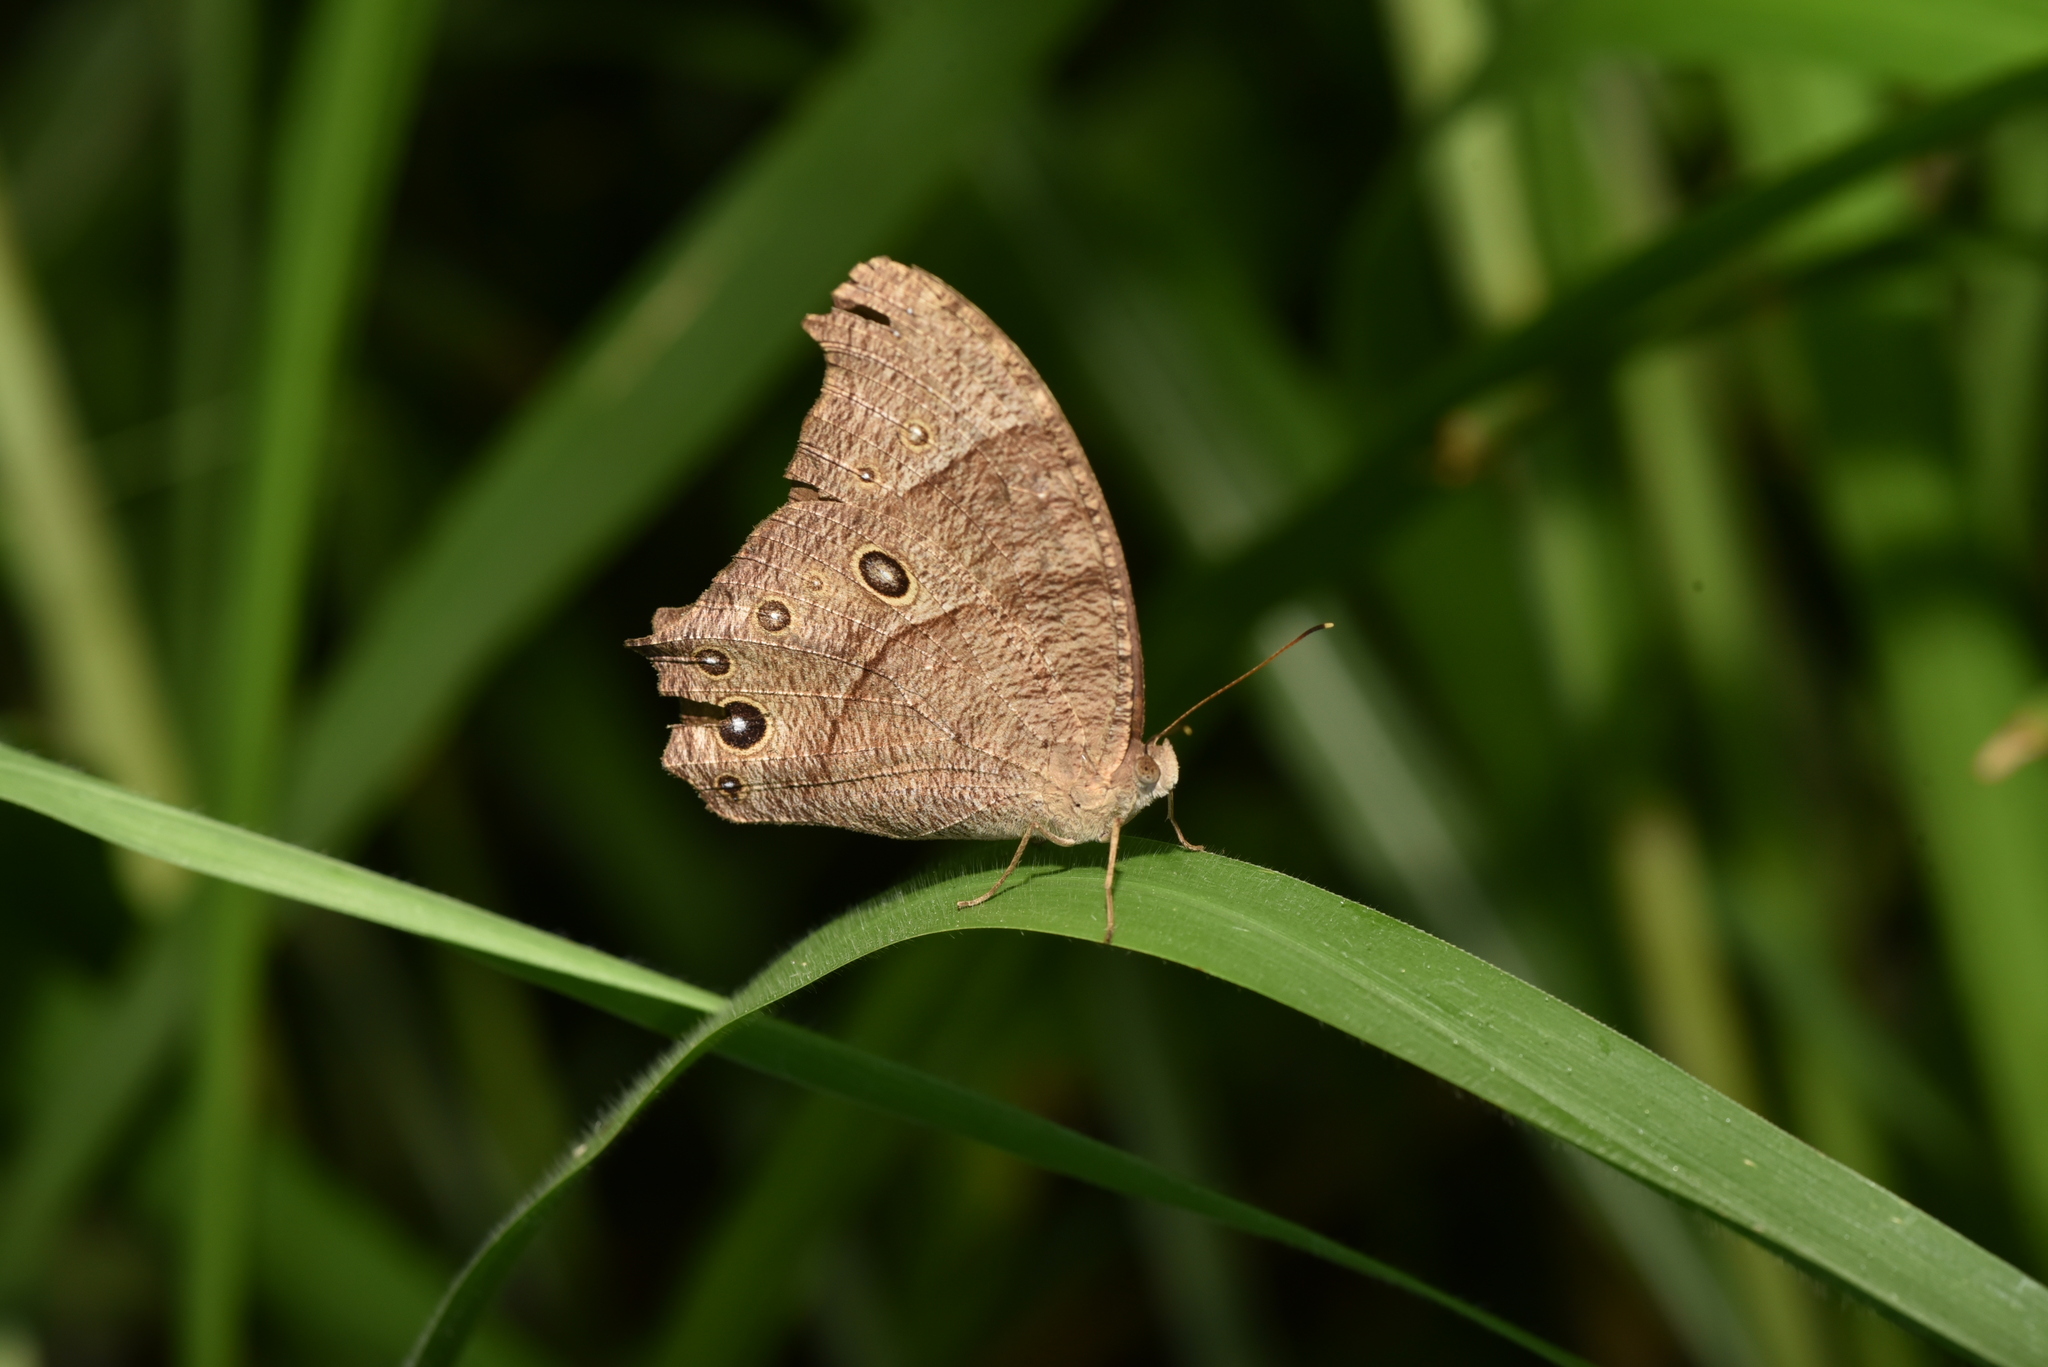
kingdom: Animalia
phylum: Arthropoda
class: Insecta
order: Lepidoptera
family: Nymphalidae
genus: Melanitis
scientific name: Melanitis leda
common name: Twilight brown
